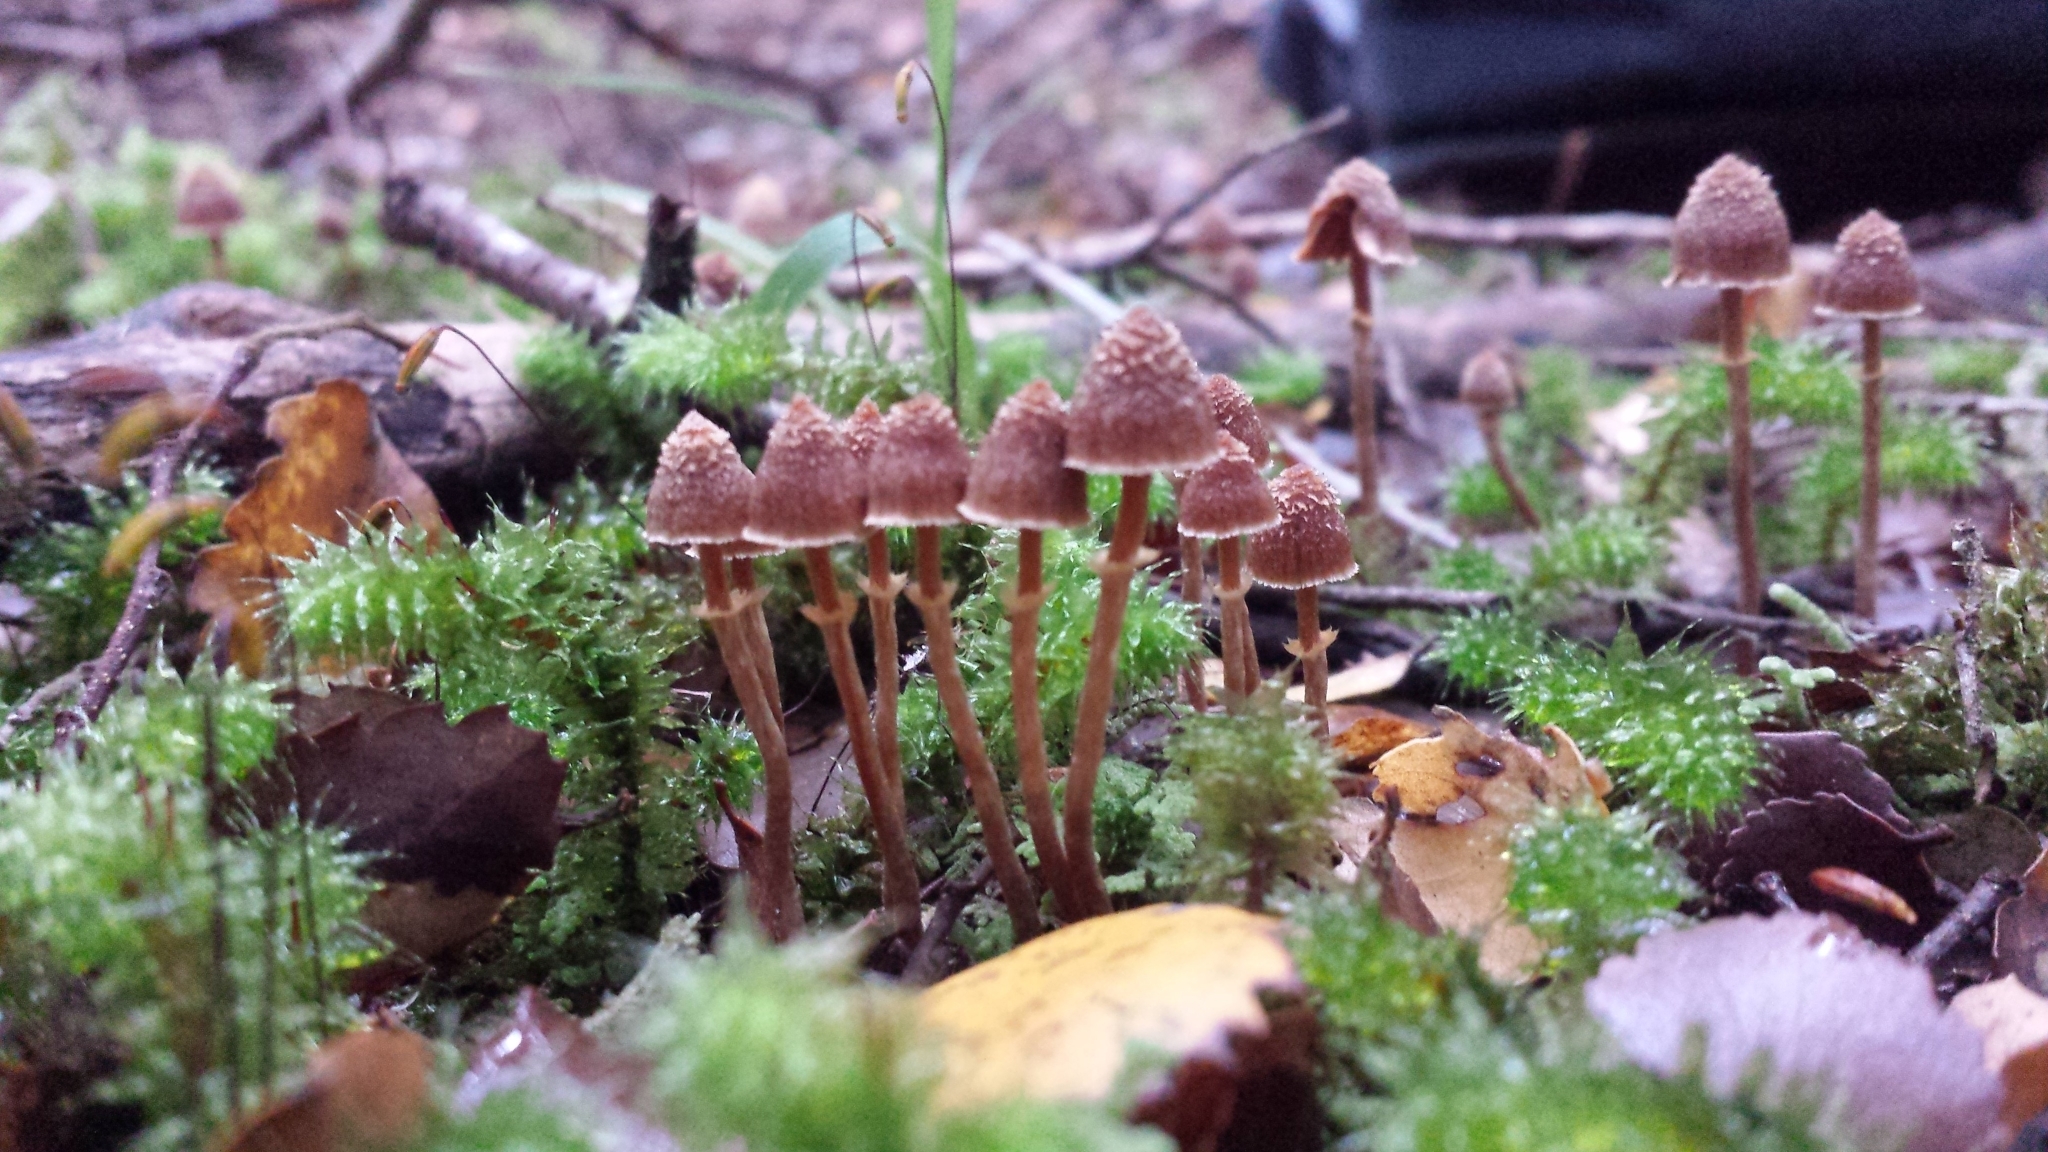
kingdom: Fungi
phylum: Basidiomycota
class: Agaricomycetes
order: Agaricales
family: Cortinariaceae
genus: Cortinarius
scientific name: Cortinarius lanceolatus
